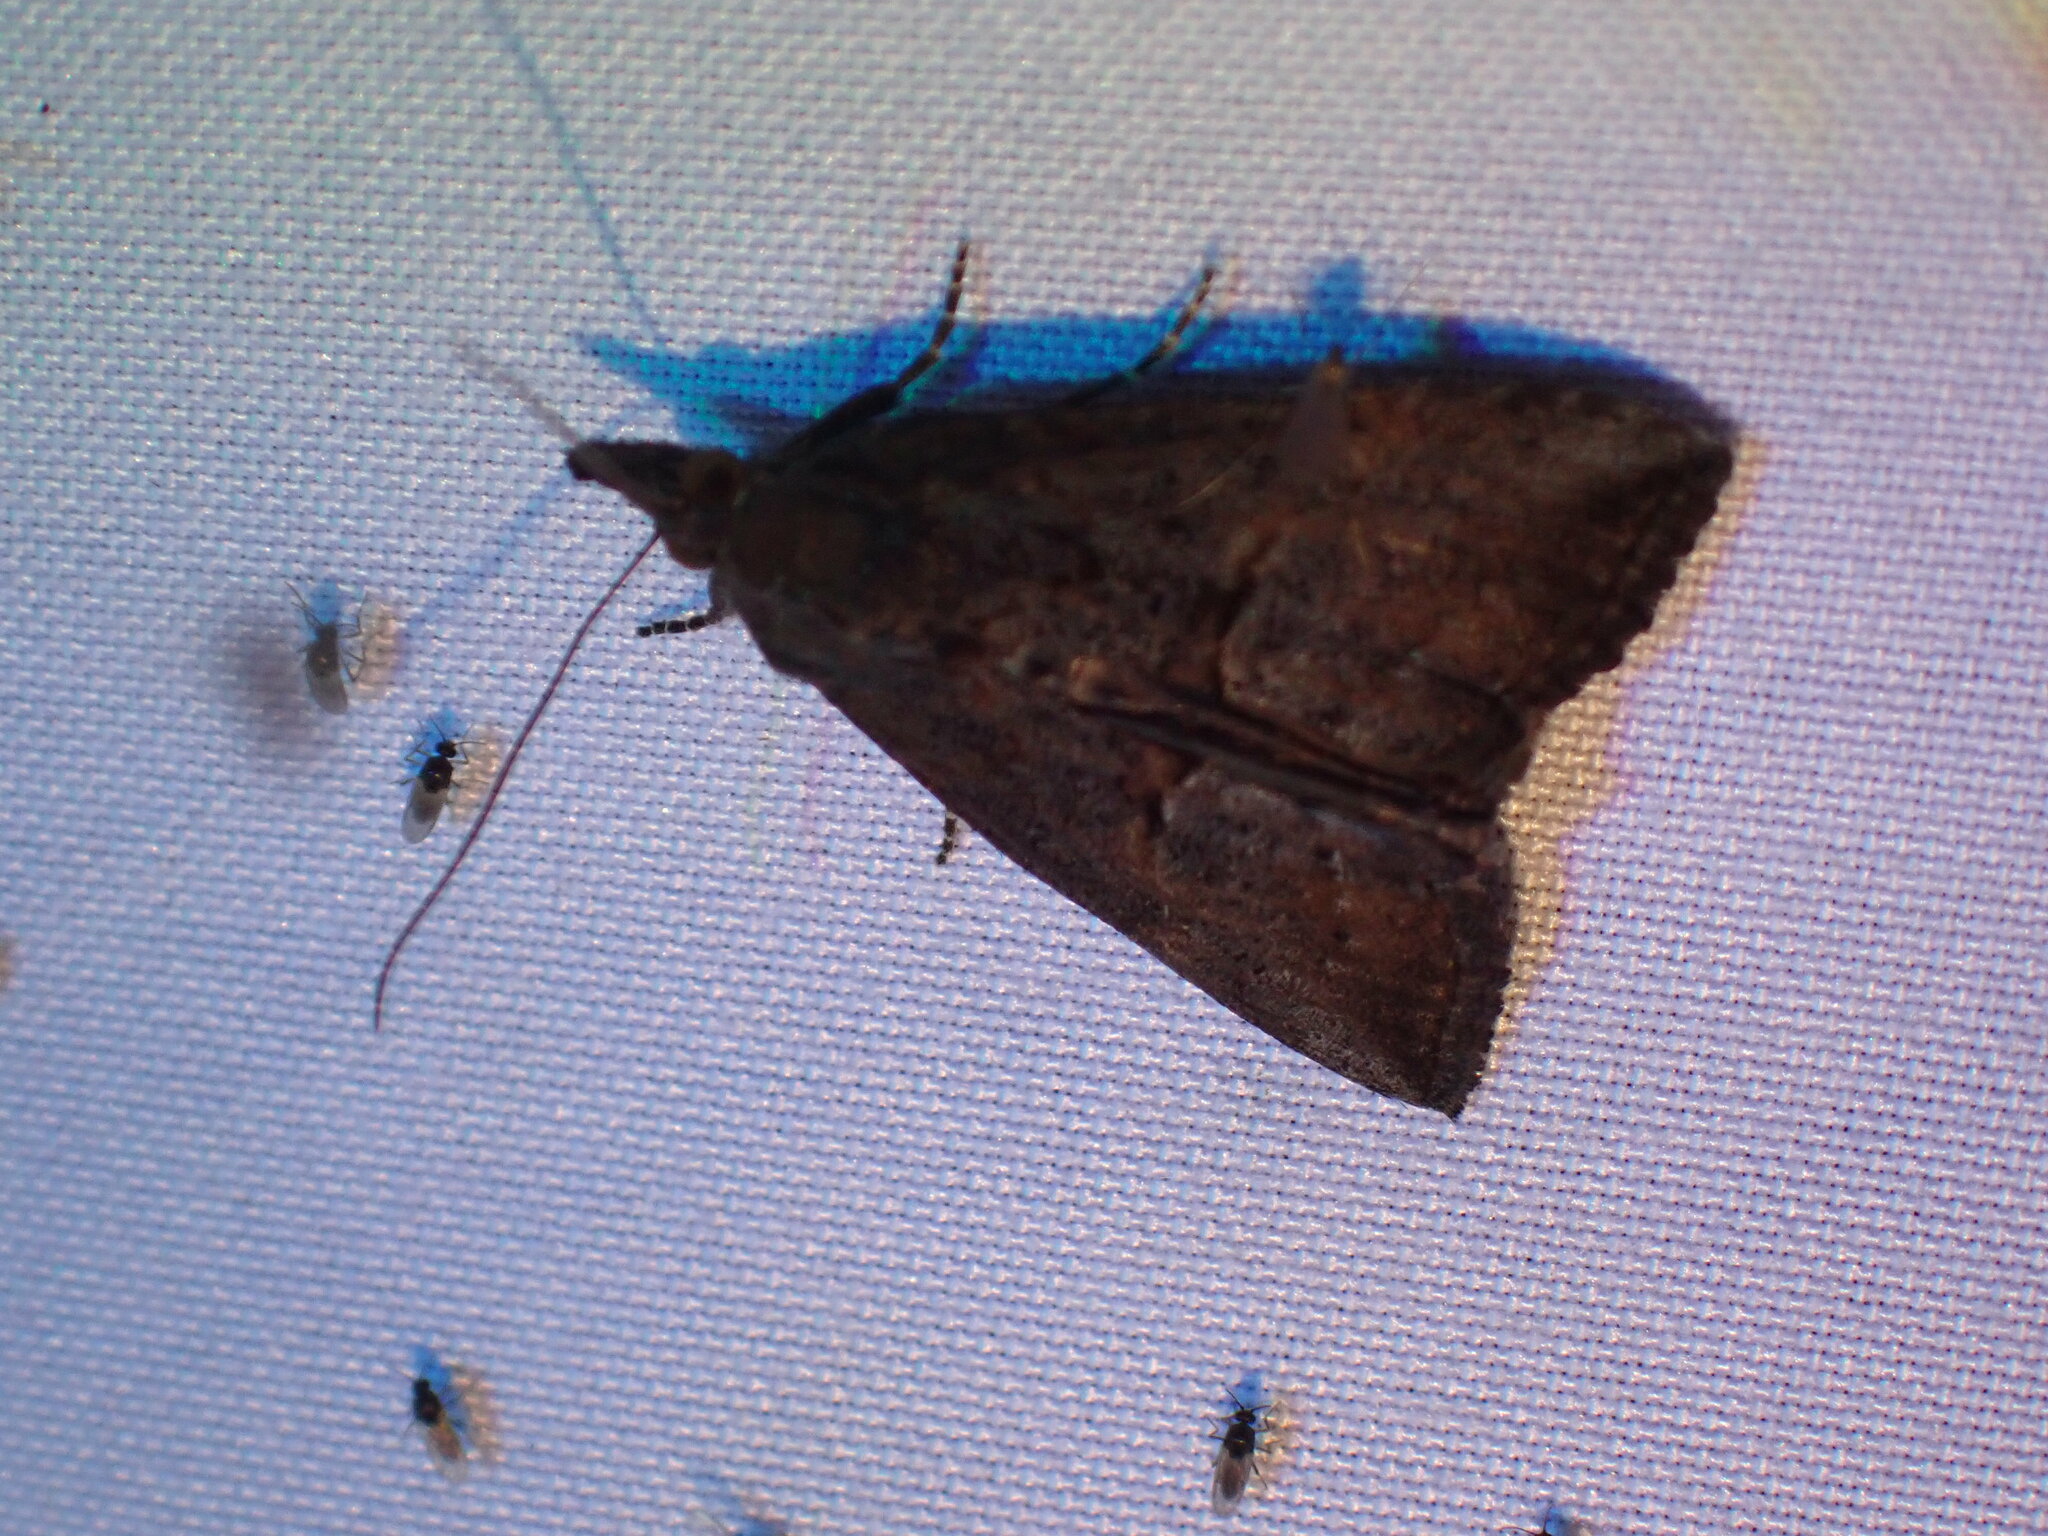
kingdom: Animalia
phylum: Arthropoda
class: Insecta
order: Lepidoptera
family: Erebidae
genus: Hypena
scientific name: Hypena scabra
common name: Green cloverworm
